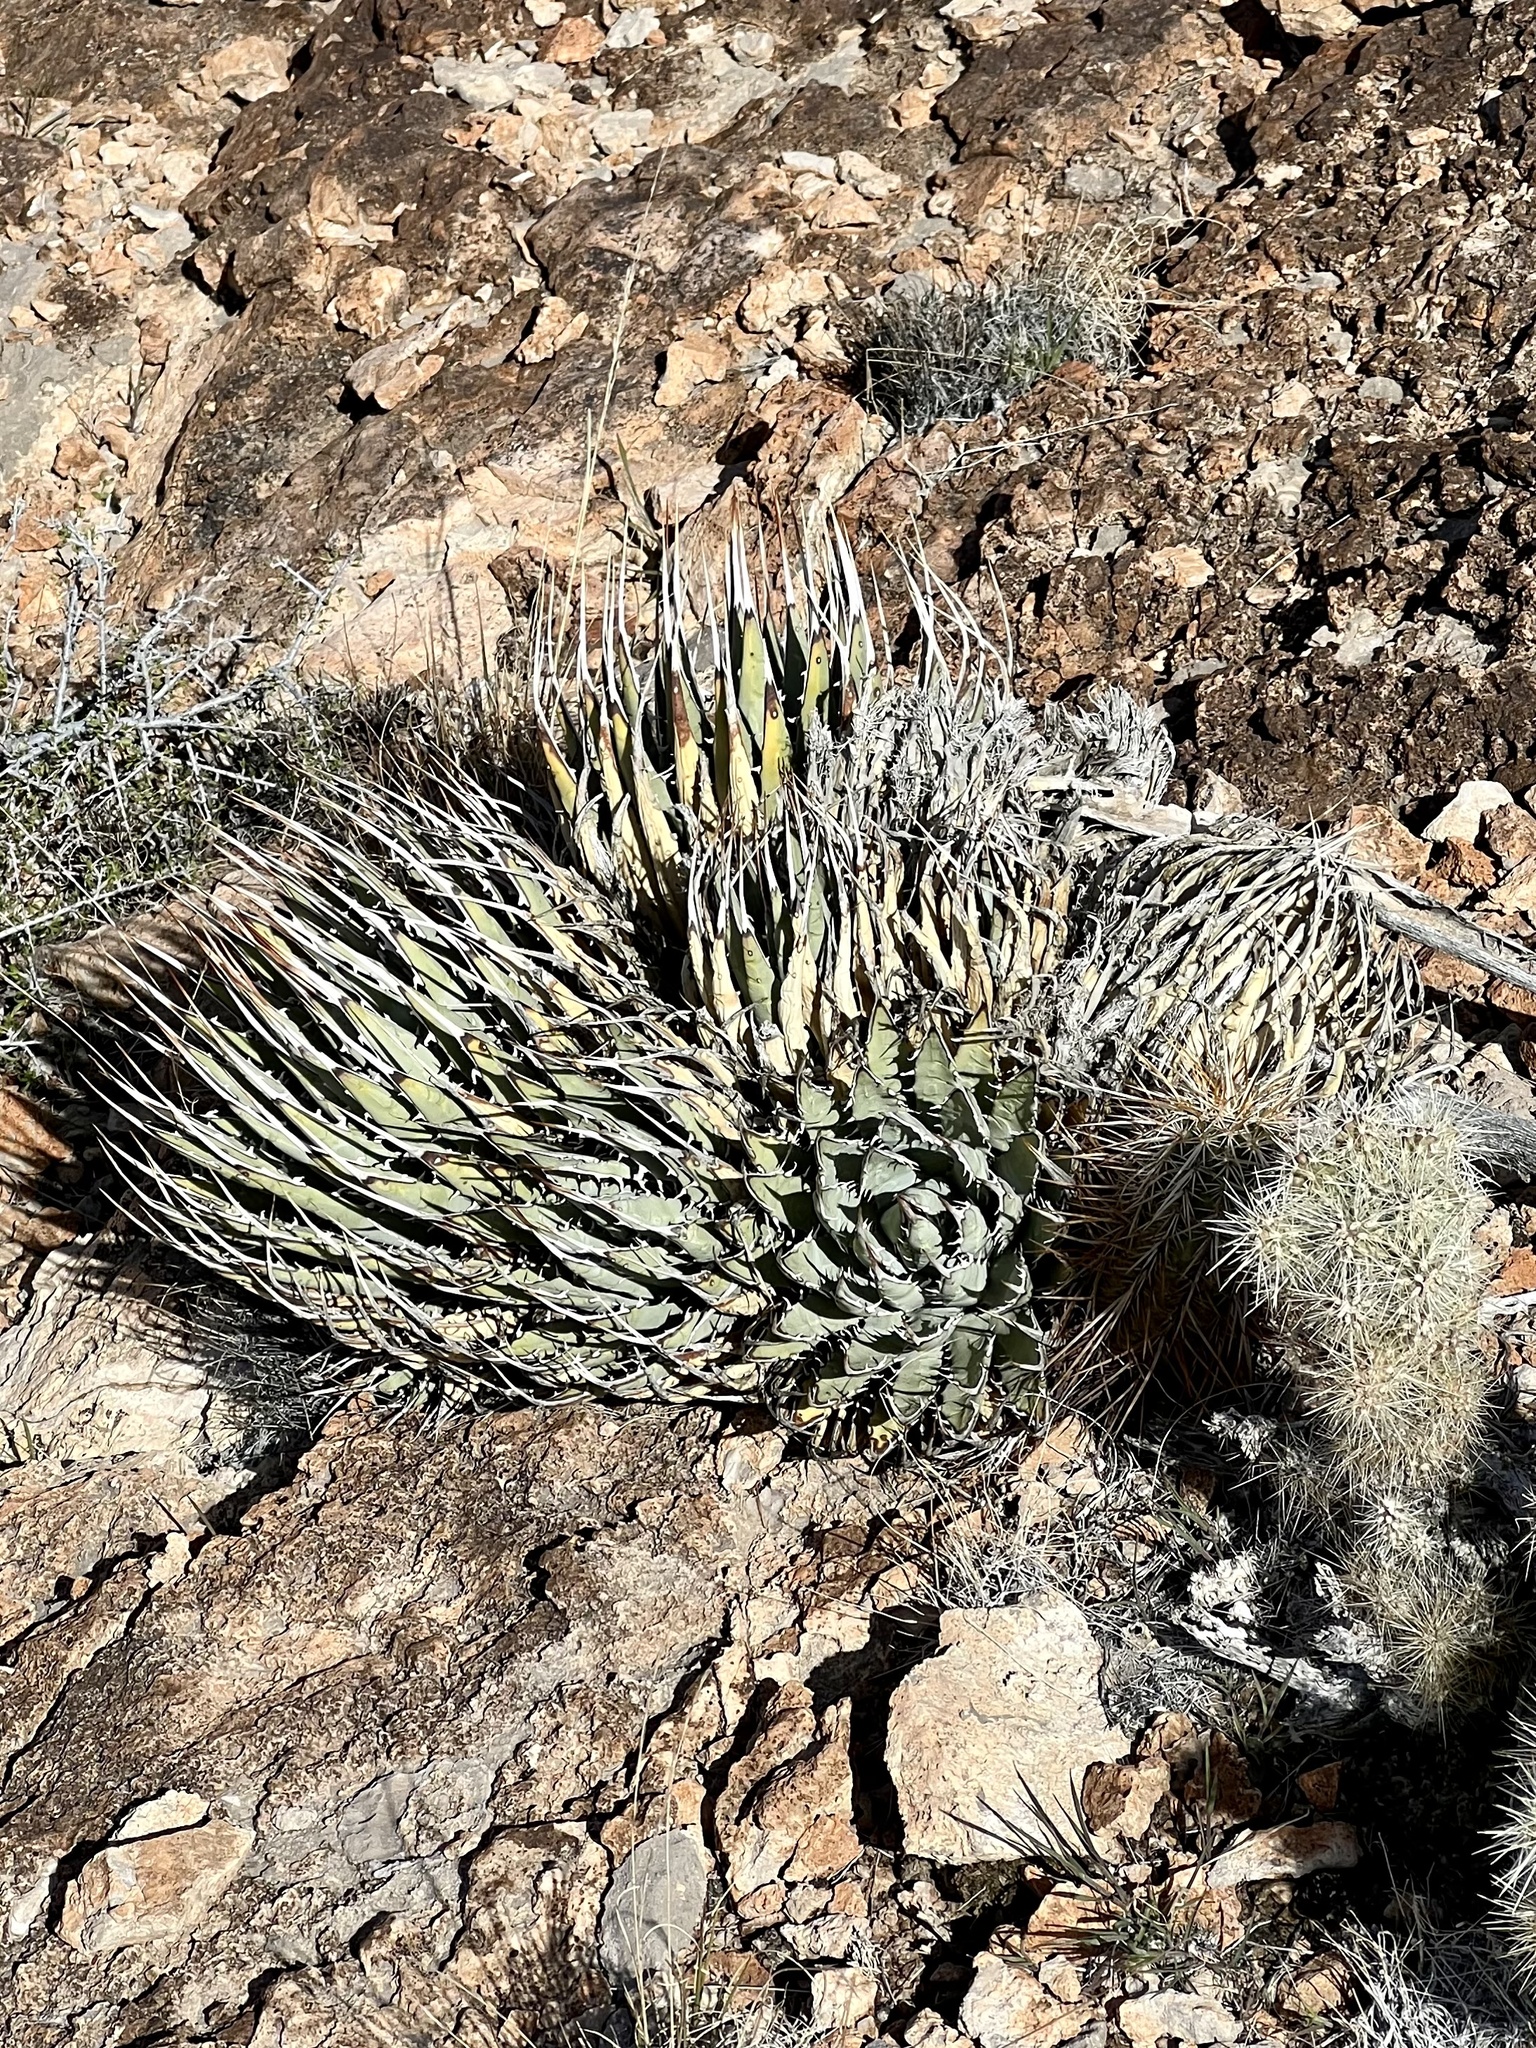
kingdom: Plantae
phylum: Tracheophyta
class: Liliopsida
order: Asparagales
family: Asparagaceae
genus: Agave
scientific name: Agave utahensis
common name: Utah agave
